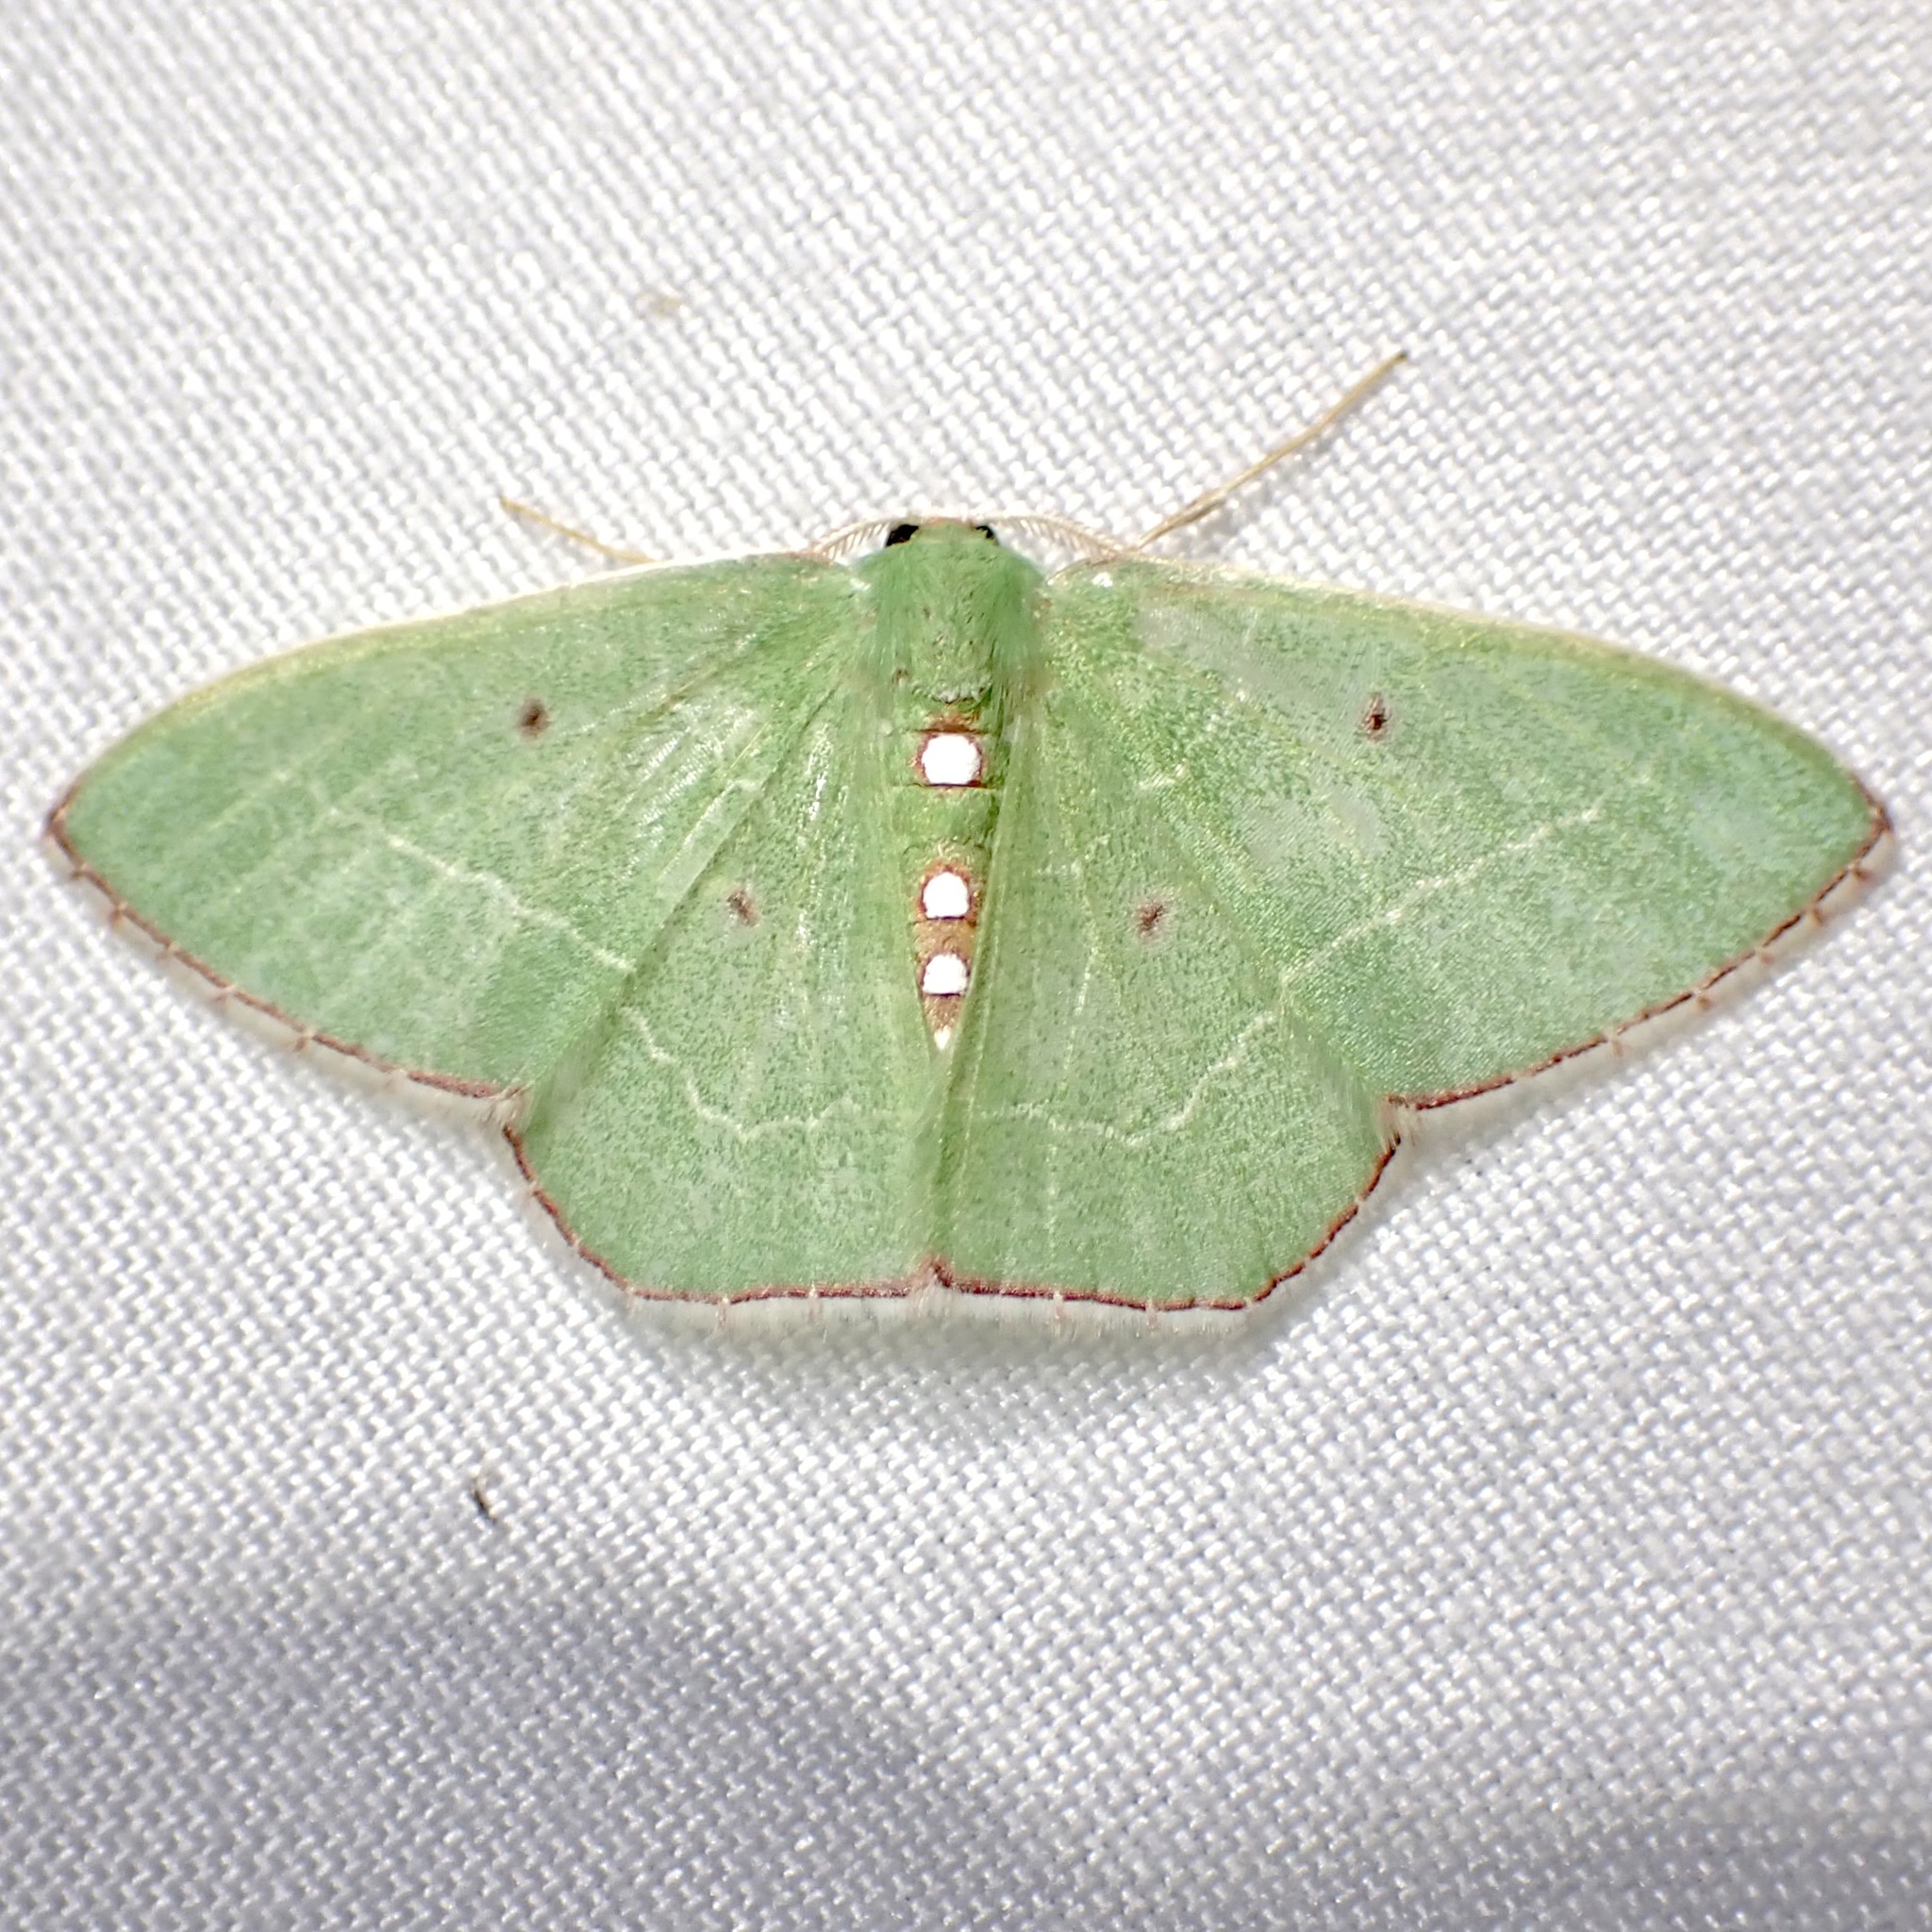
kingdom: Animalia
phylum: Arthropoda
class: Insecta
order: Lepidoptera
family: Geometridae
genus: Nemoria
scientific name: Nemoria zelotes
